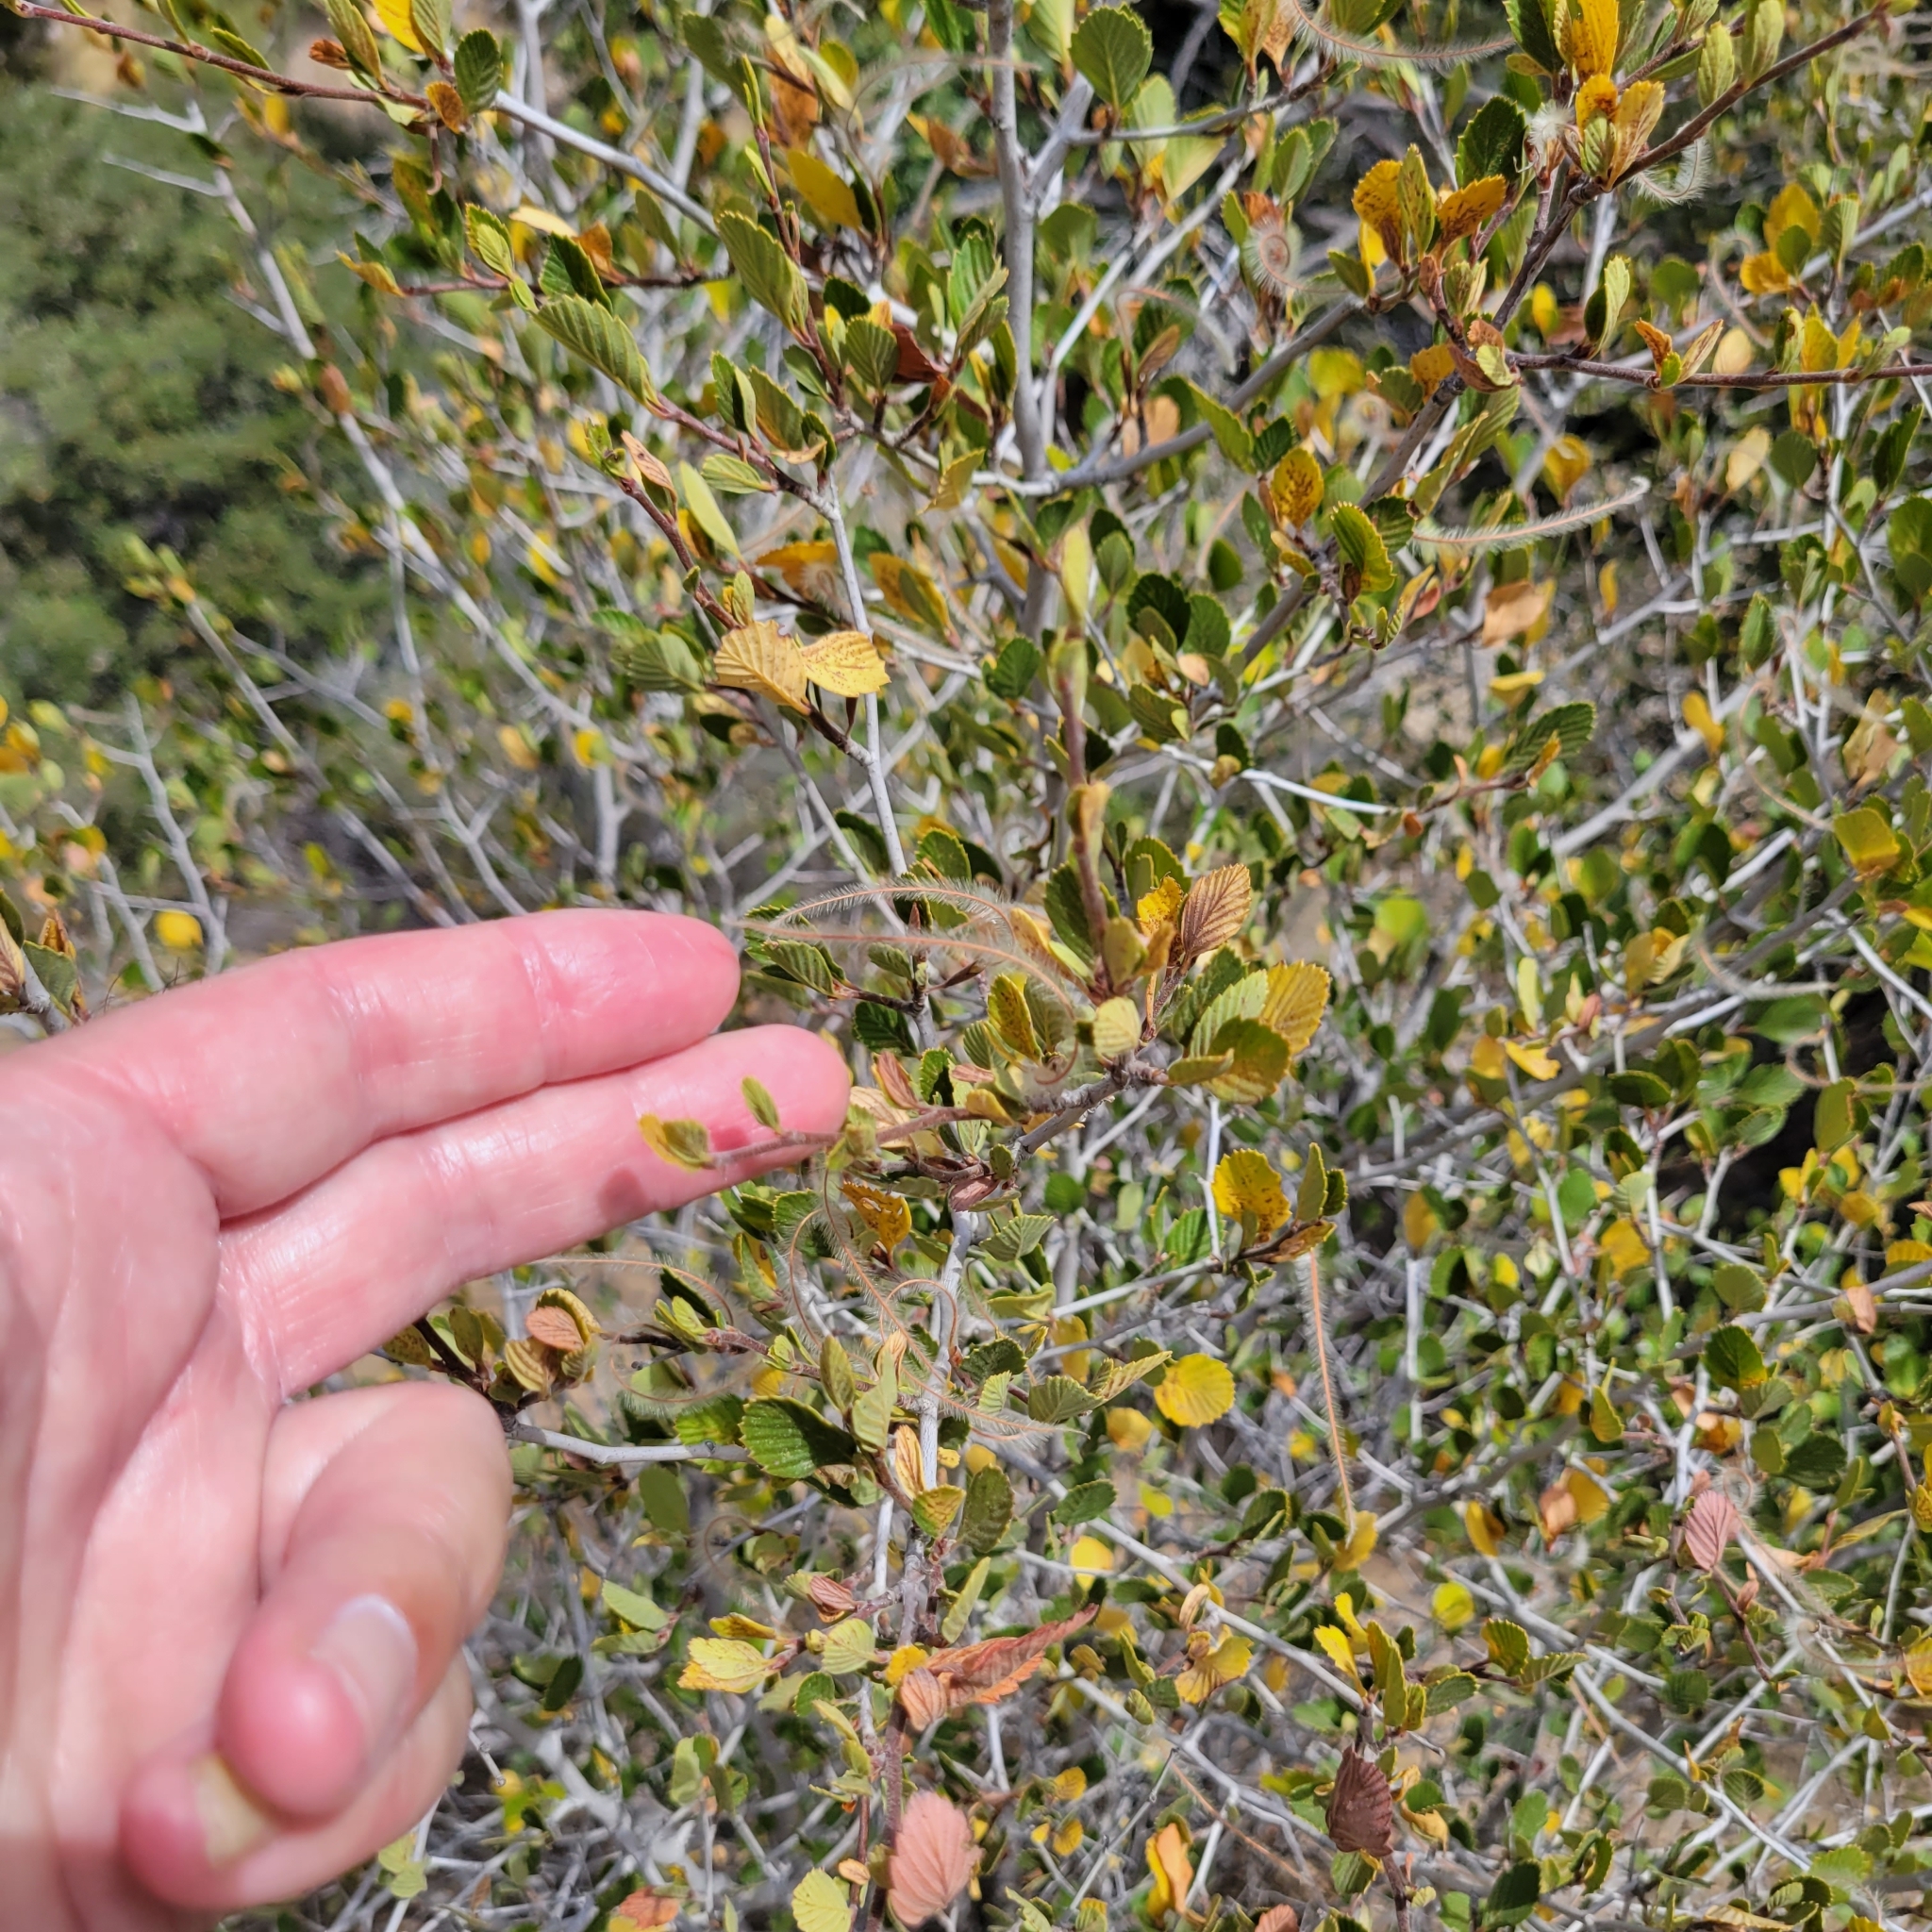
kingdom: Plantae
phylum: Tracheophyta
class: Magnoliopsida
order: Rosales
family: Rosaceae
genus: Cercocarpus
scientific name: Cercocarpus betuloides
